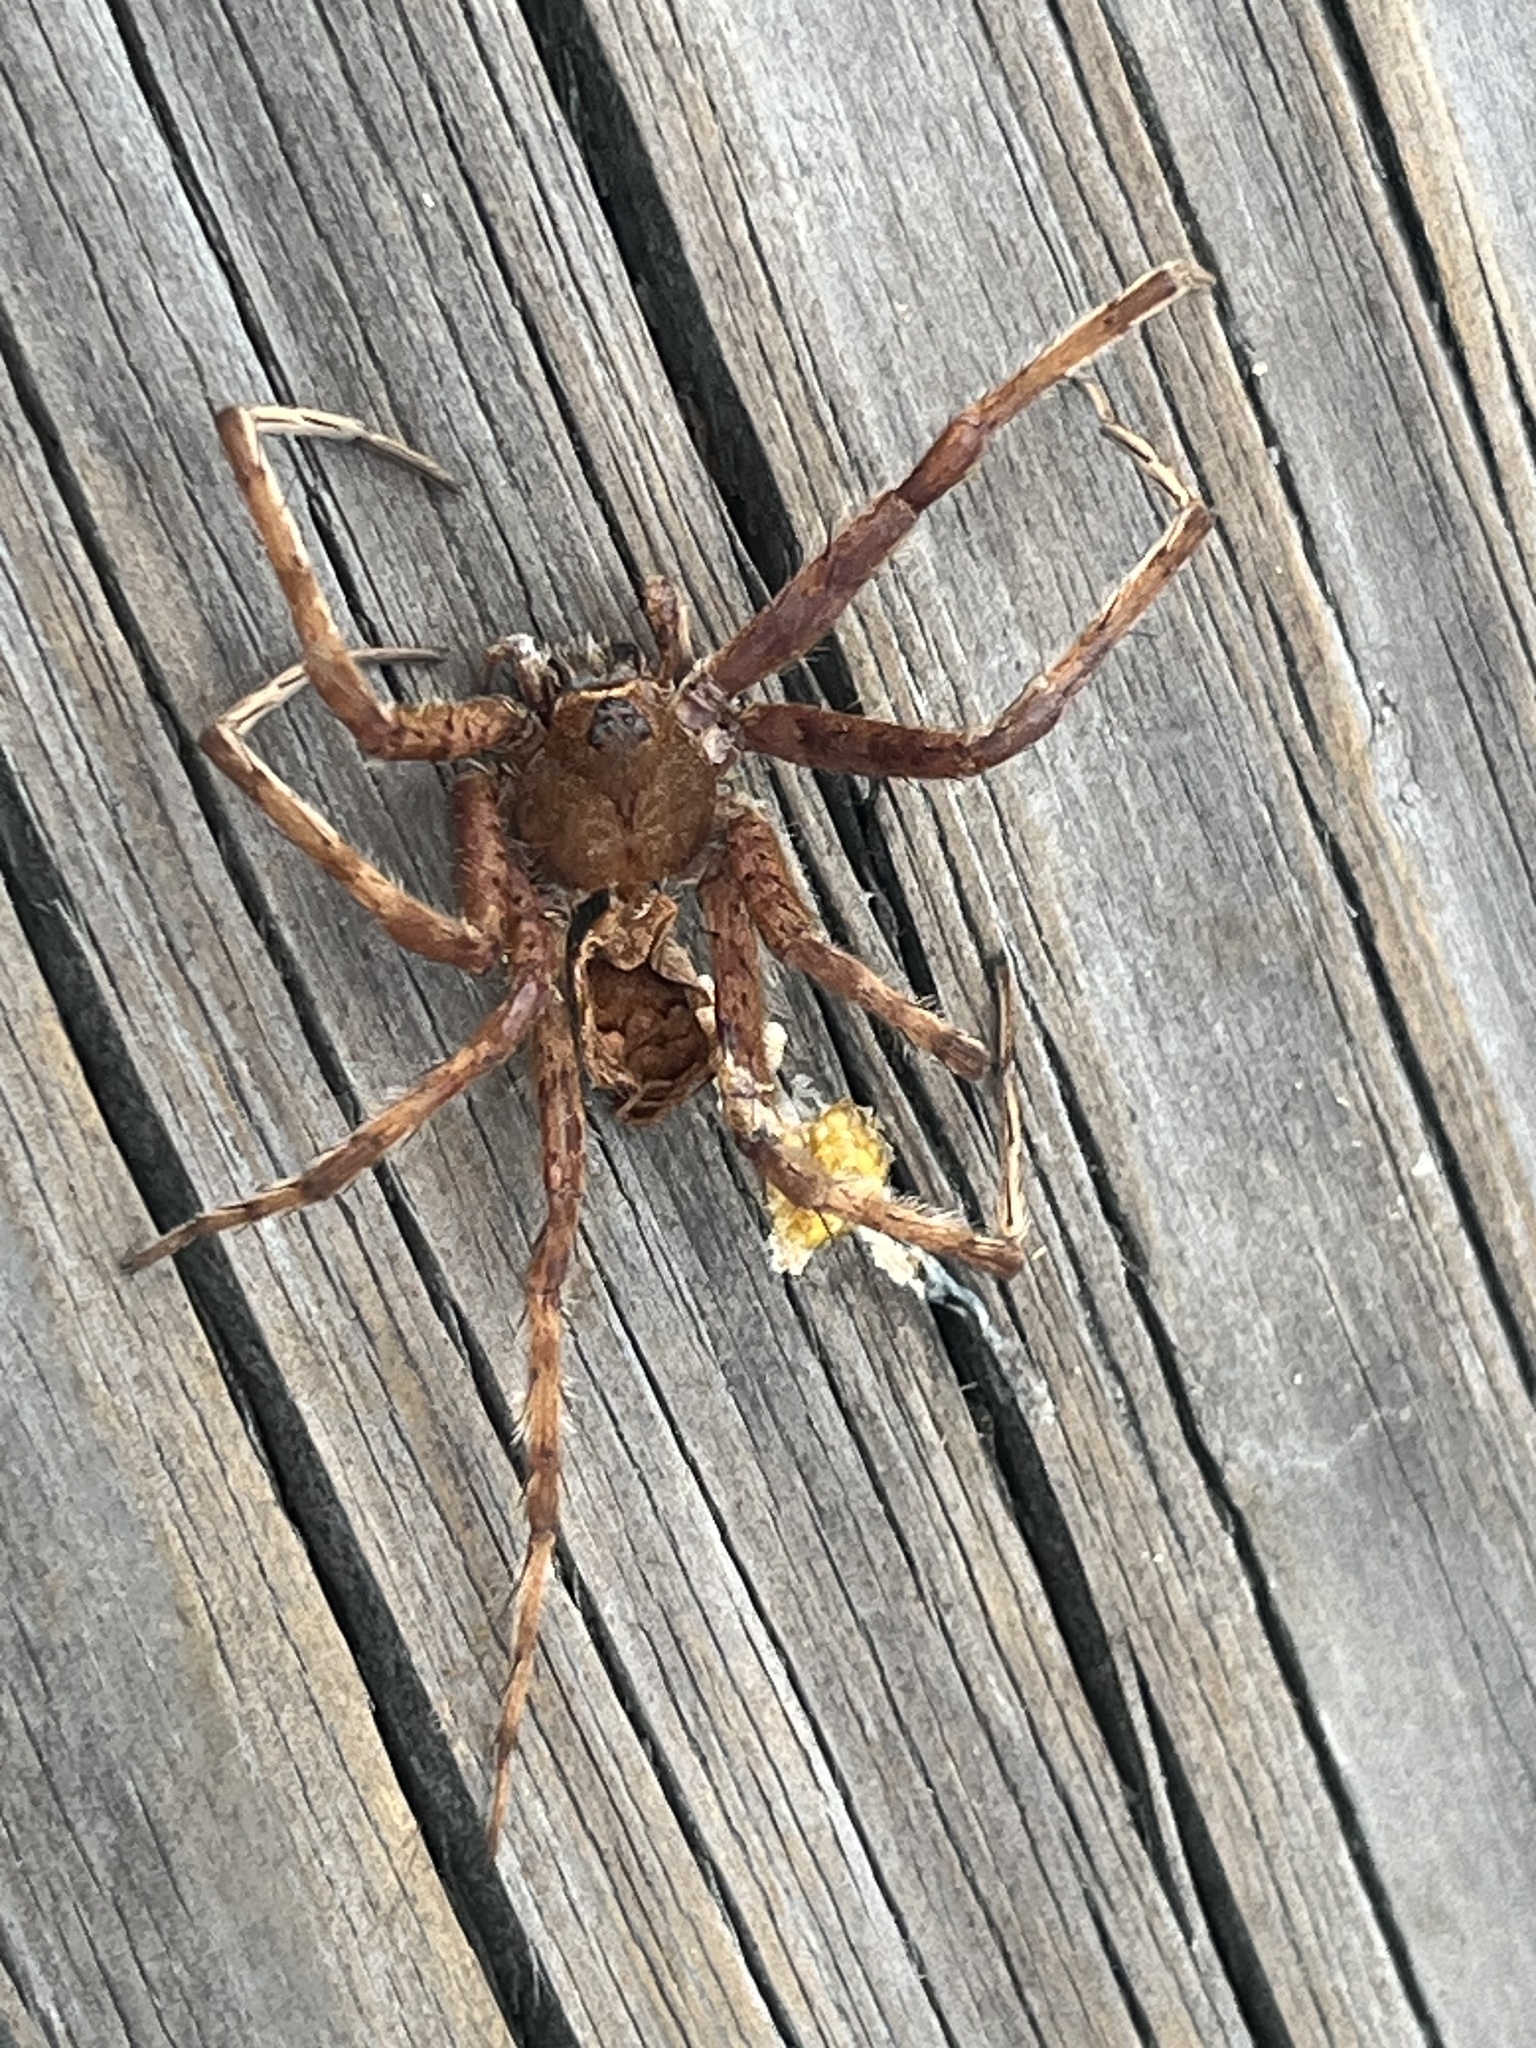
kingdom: Animalia
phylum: Arthropoda
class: Arachnida
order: Araneae
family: Pisauridae
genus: Dolomedes
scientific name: Dolomedes albineus
